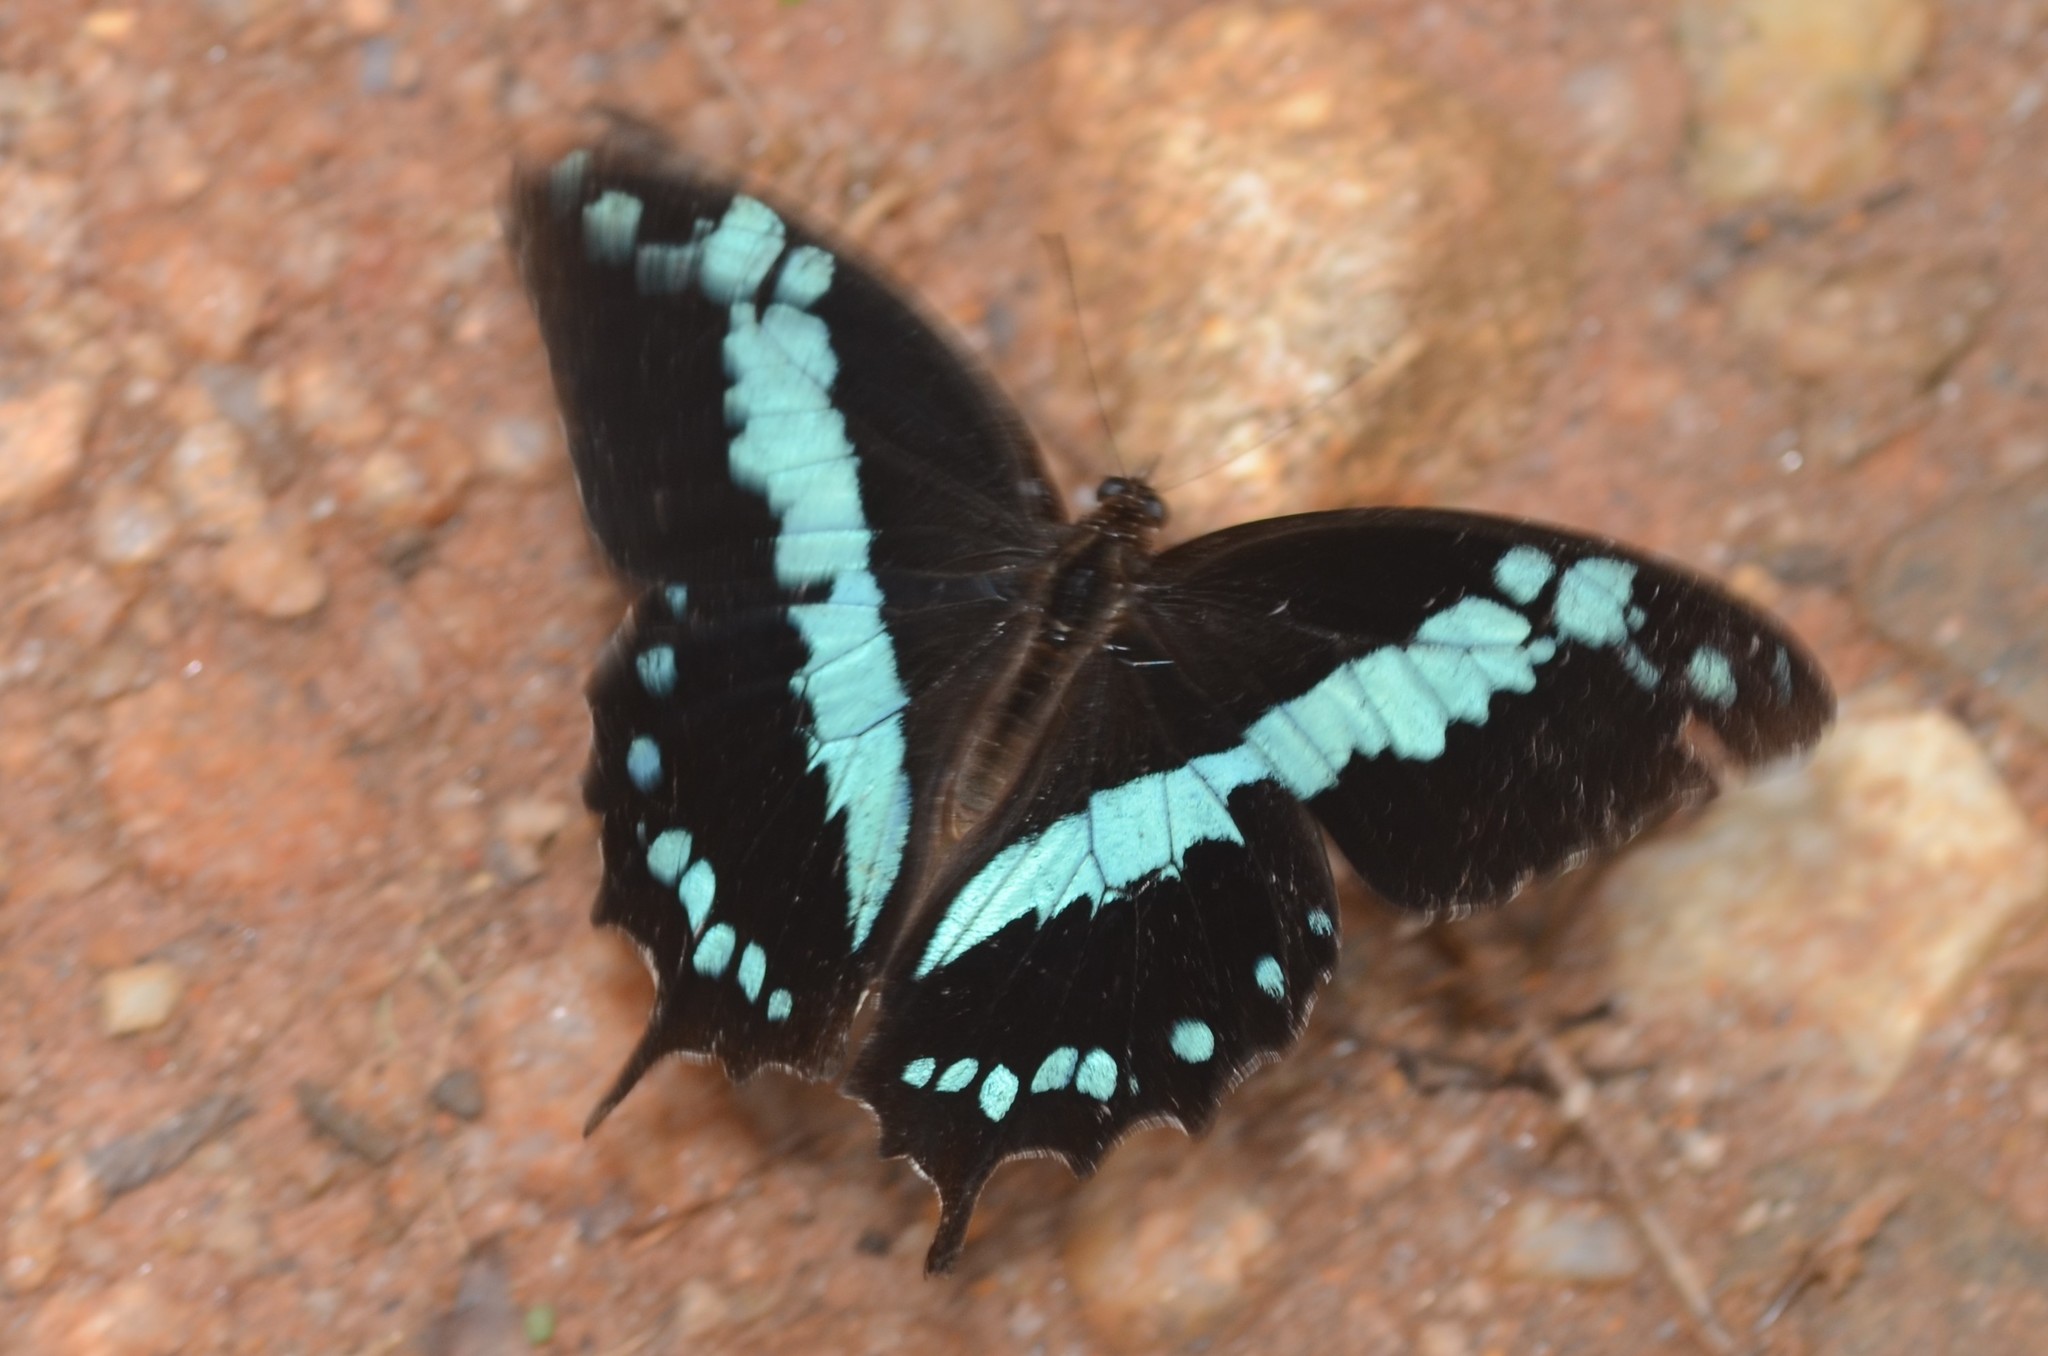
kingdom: Animalia
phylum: Arthropoda
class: Insecta
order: Lepidoptera
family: Papilionidae
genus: Papilio
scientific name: Papilio oribazus
